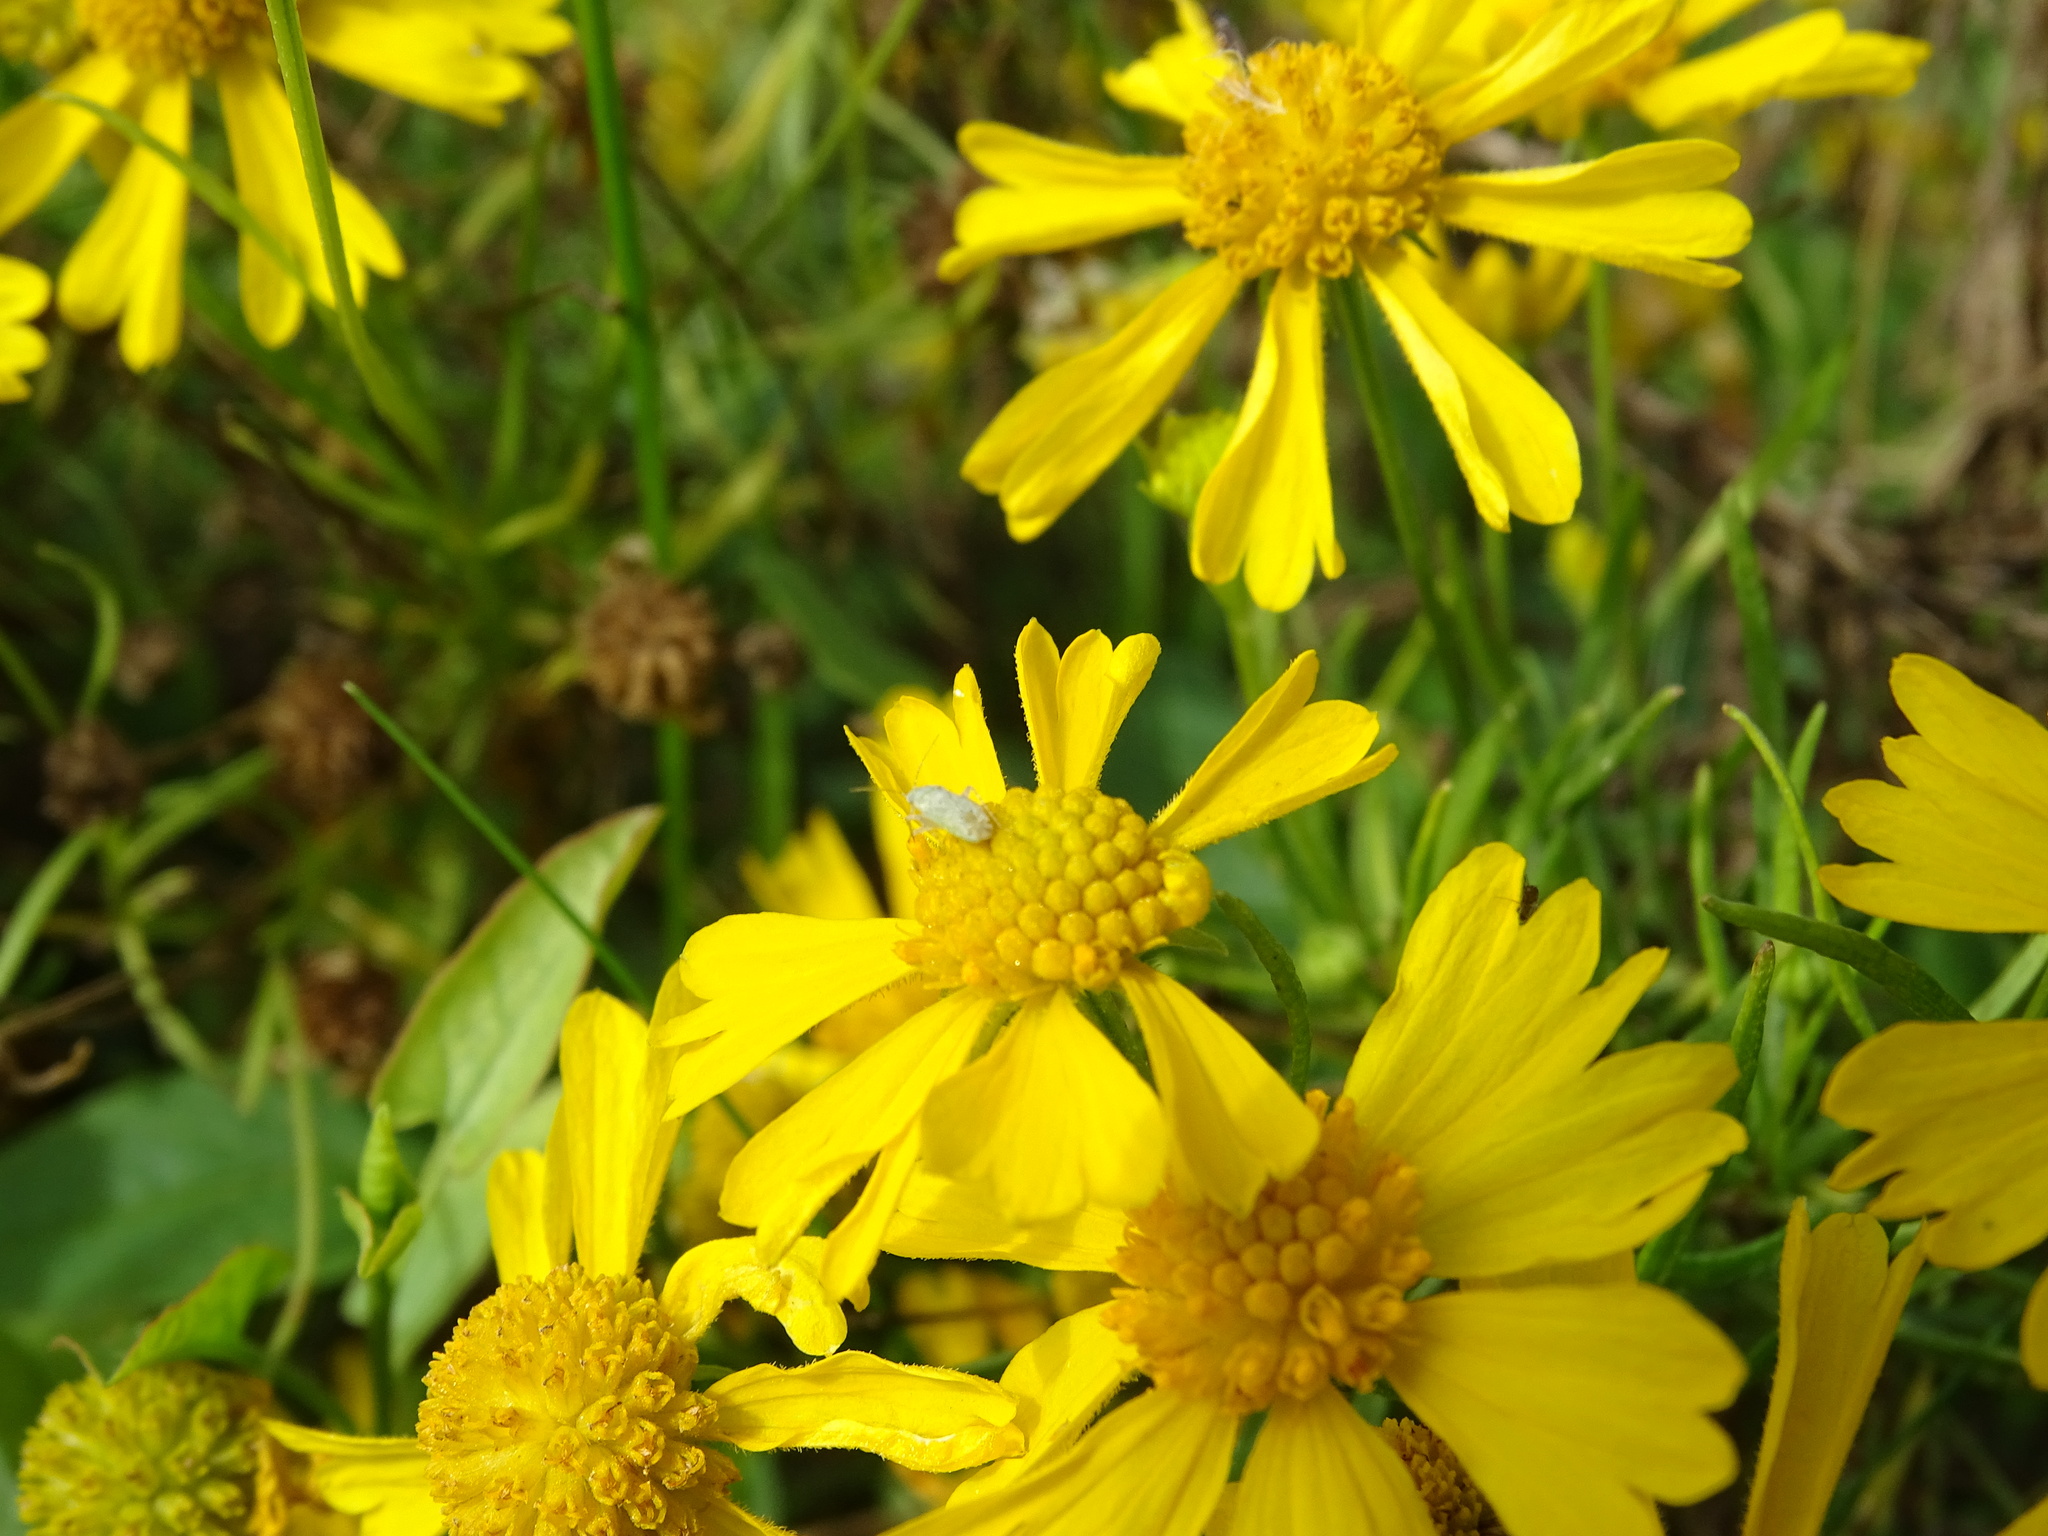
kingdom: Plantae
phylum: Tracheophyta
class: Magnoliopsida
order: Asterales
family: Asteraceae
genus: Helenium
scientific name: Helenium amarum
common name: Bitter sneezeweed
